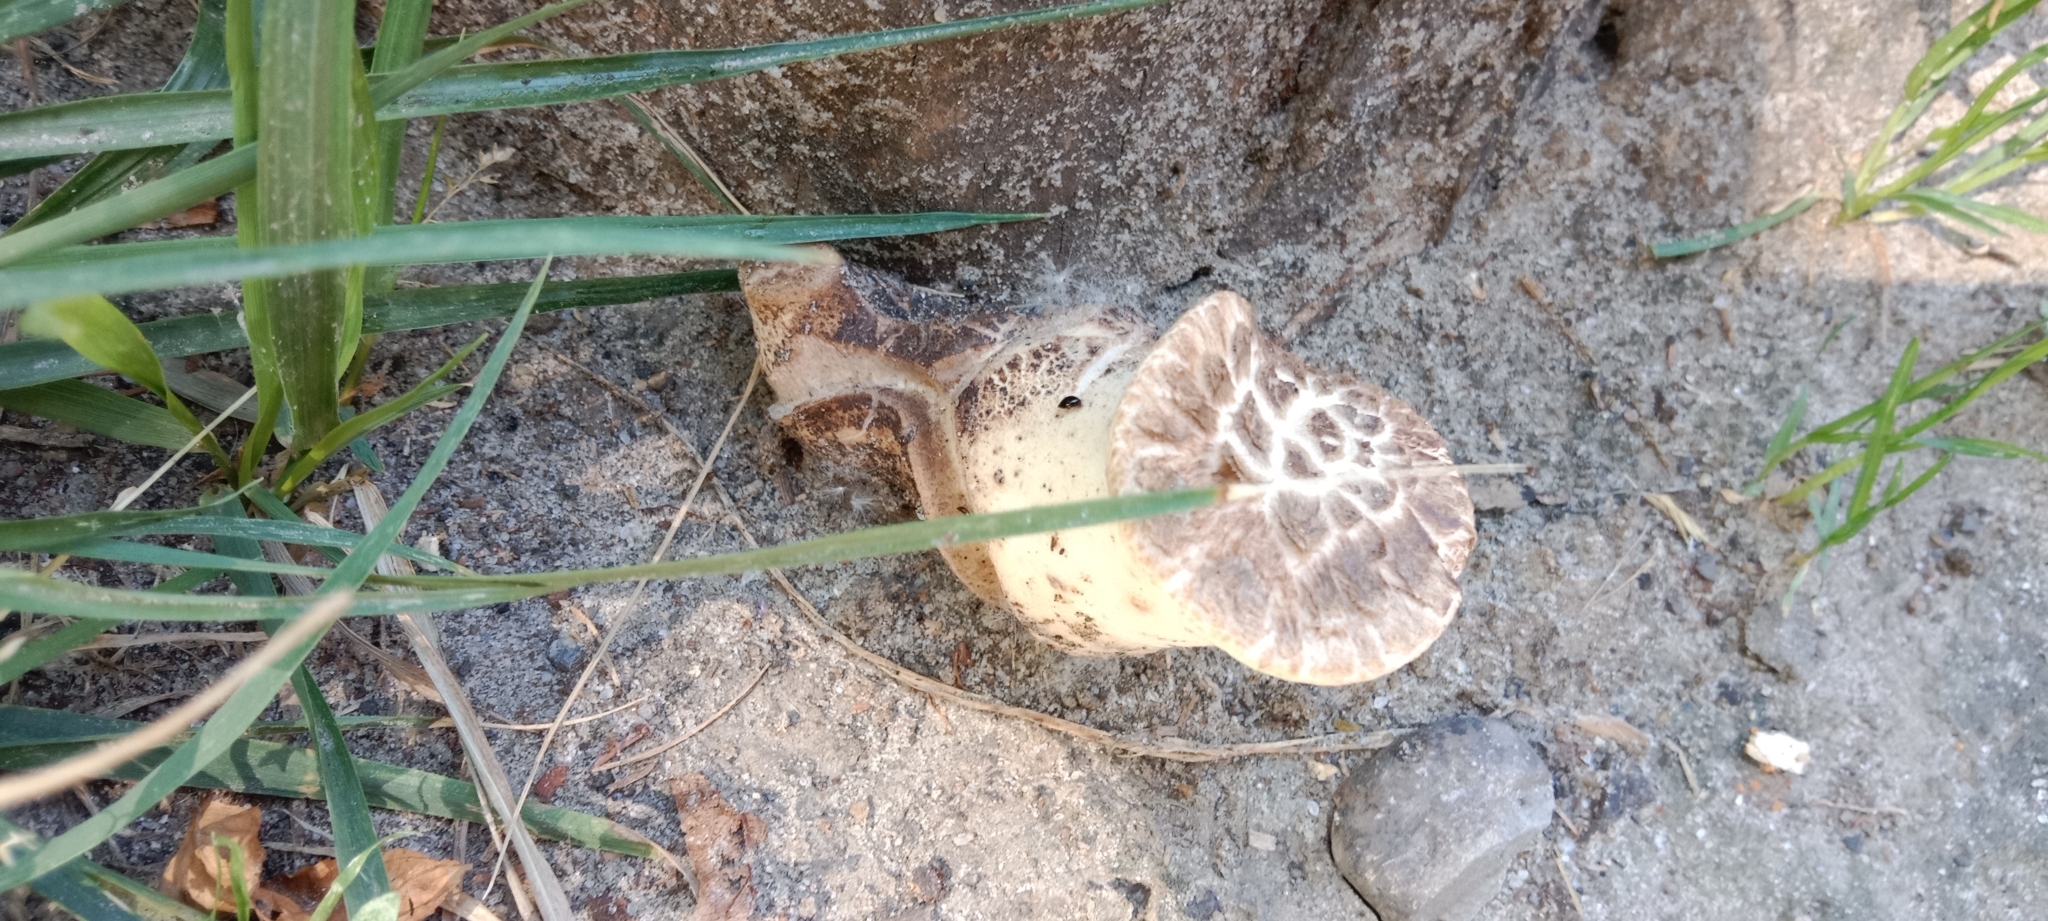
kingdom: Fungi
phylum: Basidiomycota
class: Agaricomycetes
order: Polyporales
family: Polyporaceae
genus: Cerioporus
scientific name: Cerioporus squamosus
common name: Dryad's saddle
